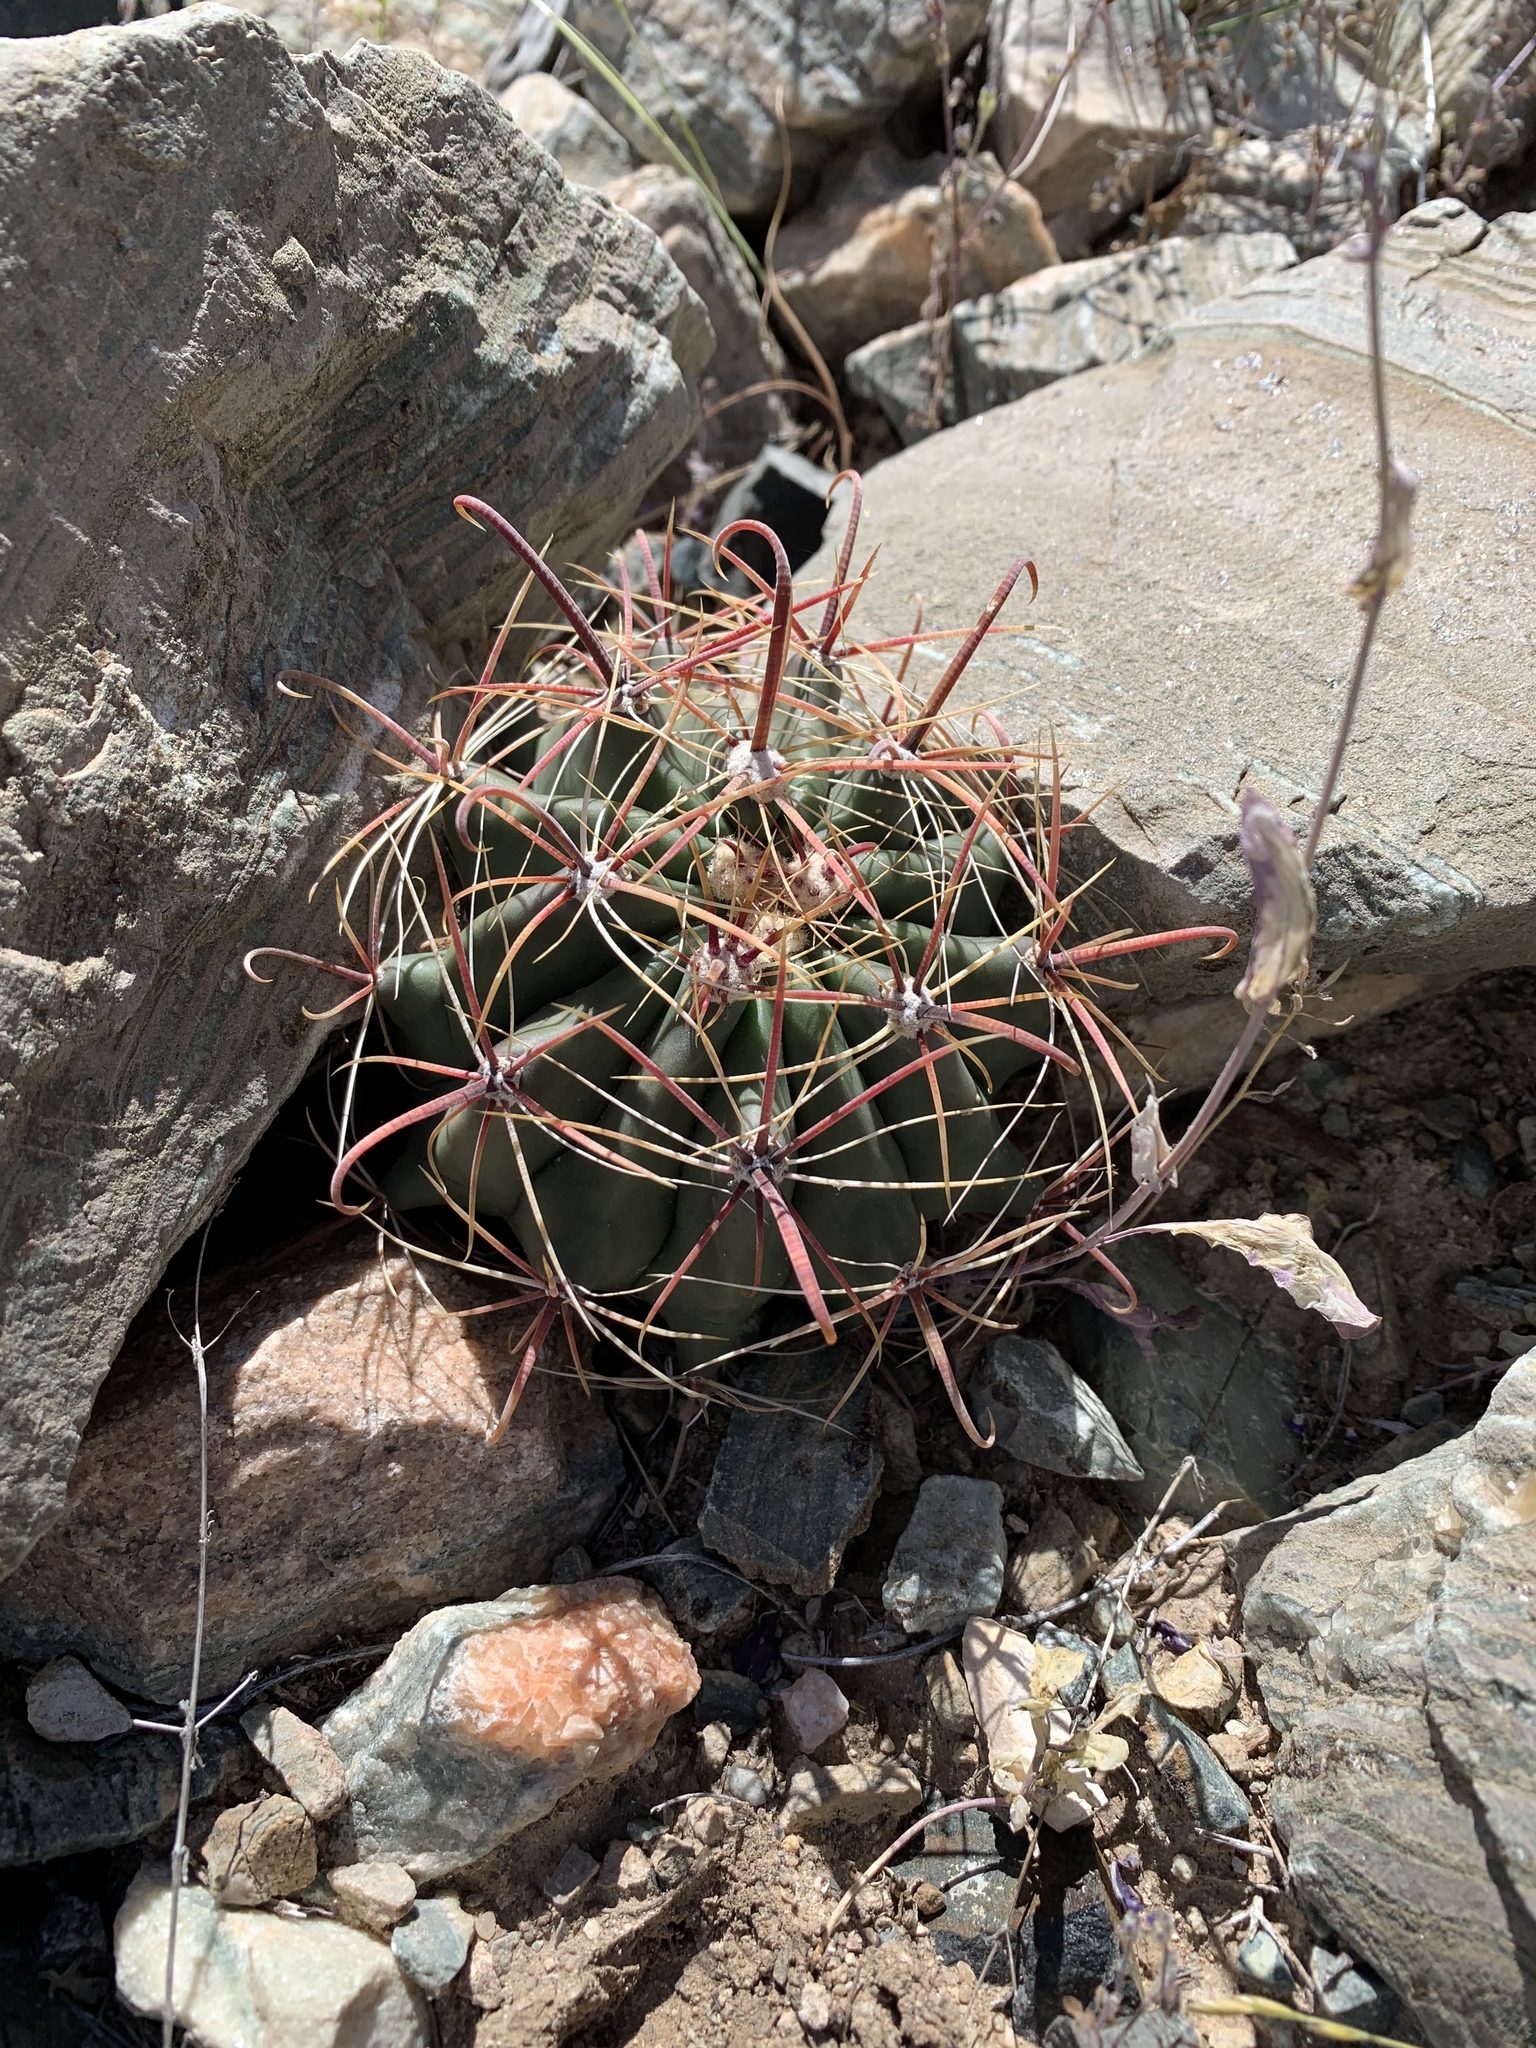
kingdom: Plantae
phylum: Tracheophyta
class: Magnoliopsida
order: Caryophyllales
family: Cactaceae
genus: Ferocactus
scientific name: Ferocactus wislizeni
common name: Candy barrel cactus
